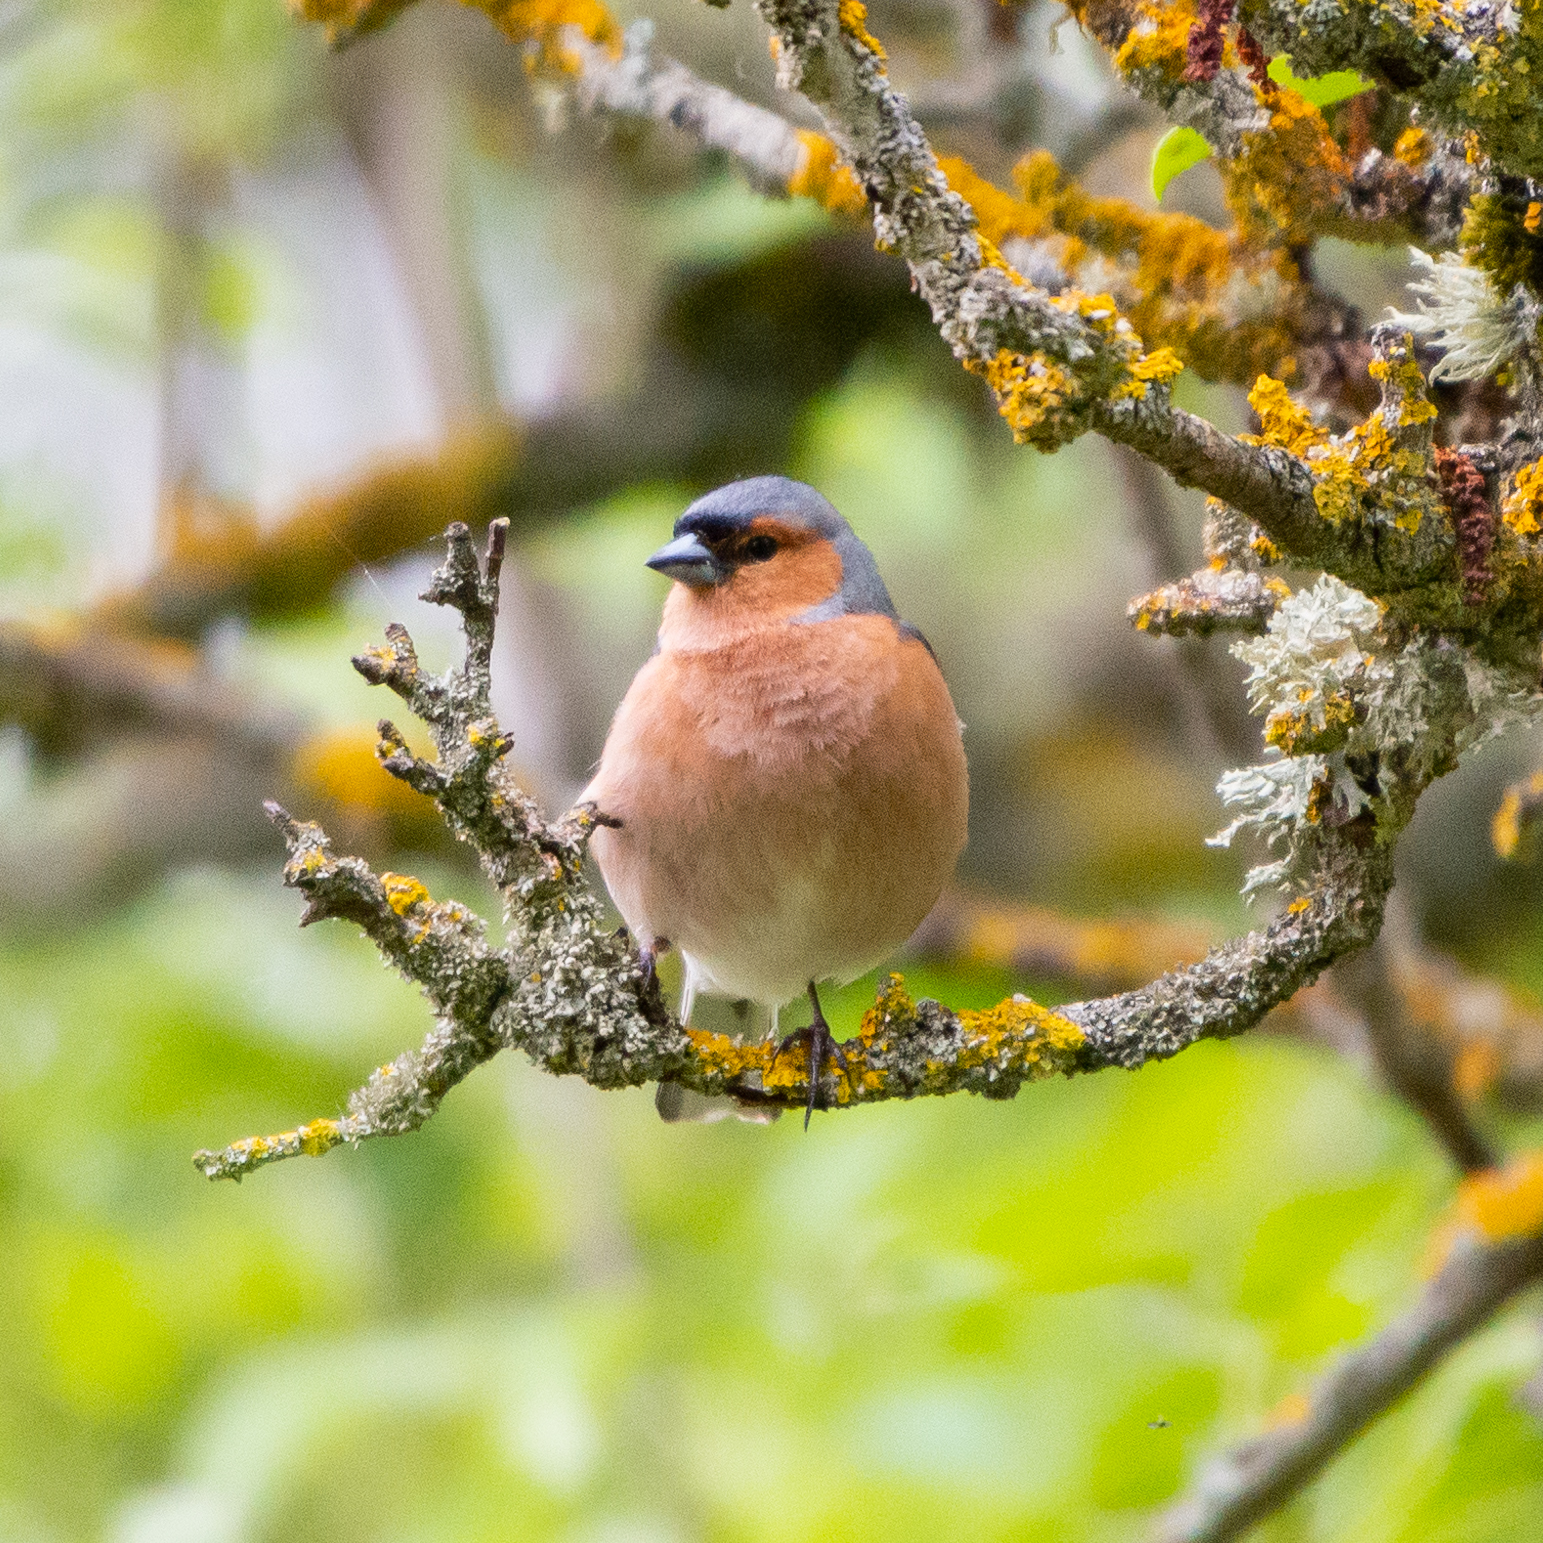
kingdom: Animalia
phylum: Chordata
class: Aves
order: Passeriformes
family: Fringillidae
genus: Fringilla
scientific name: Fringilla coelebs
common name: Common chaffinch
